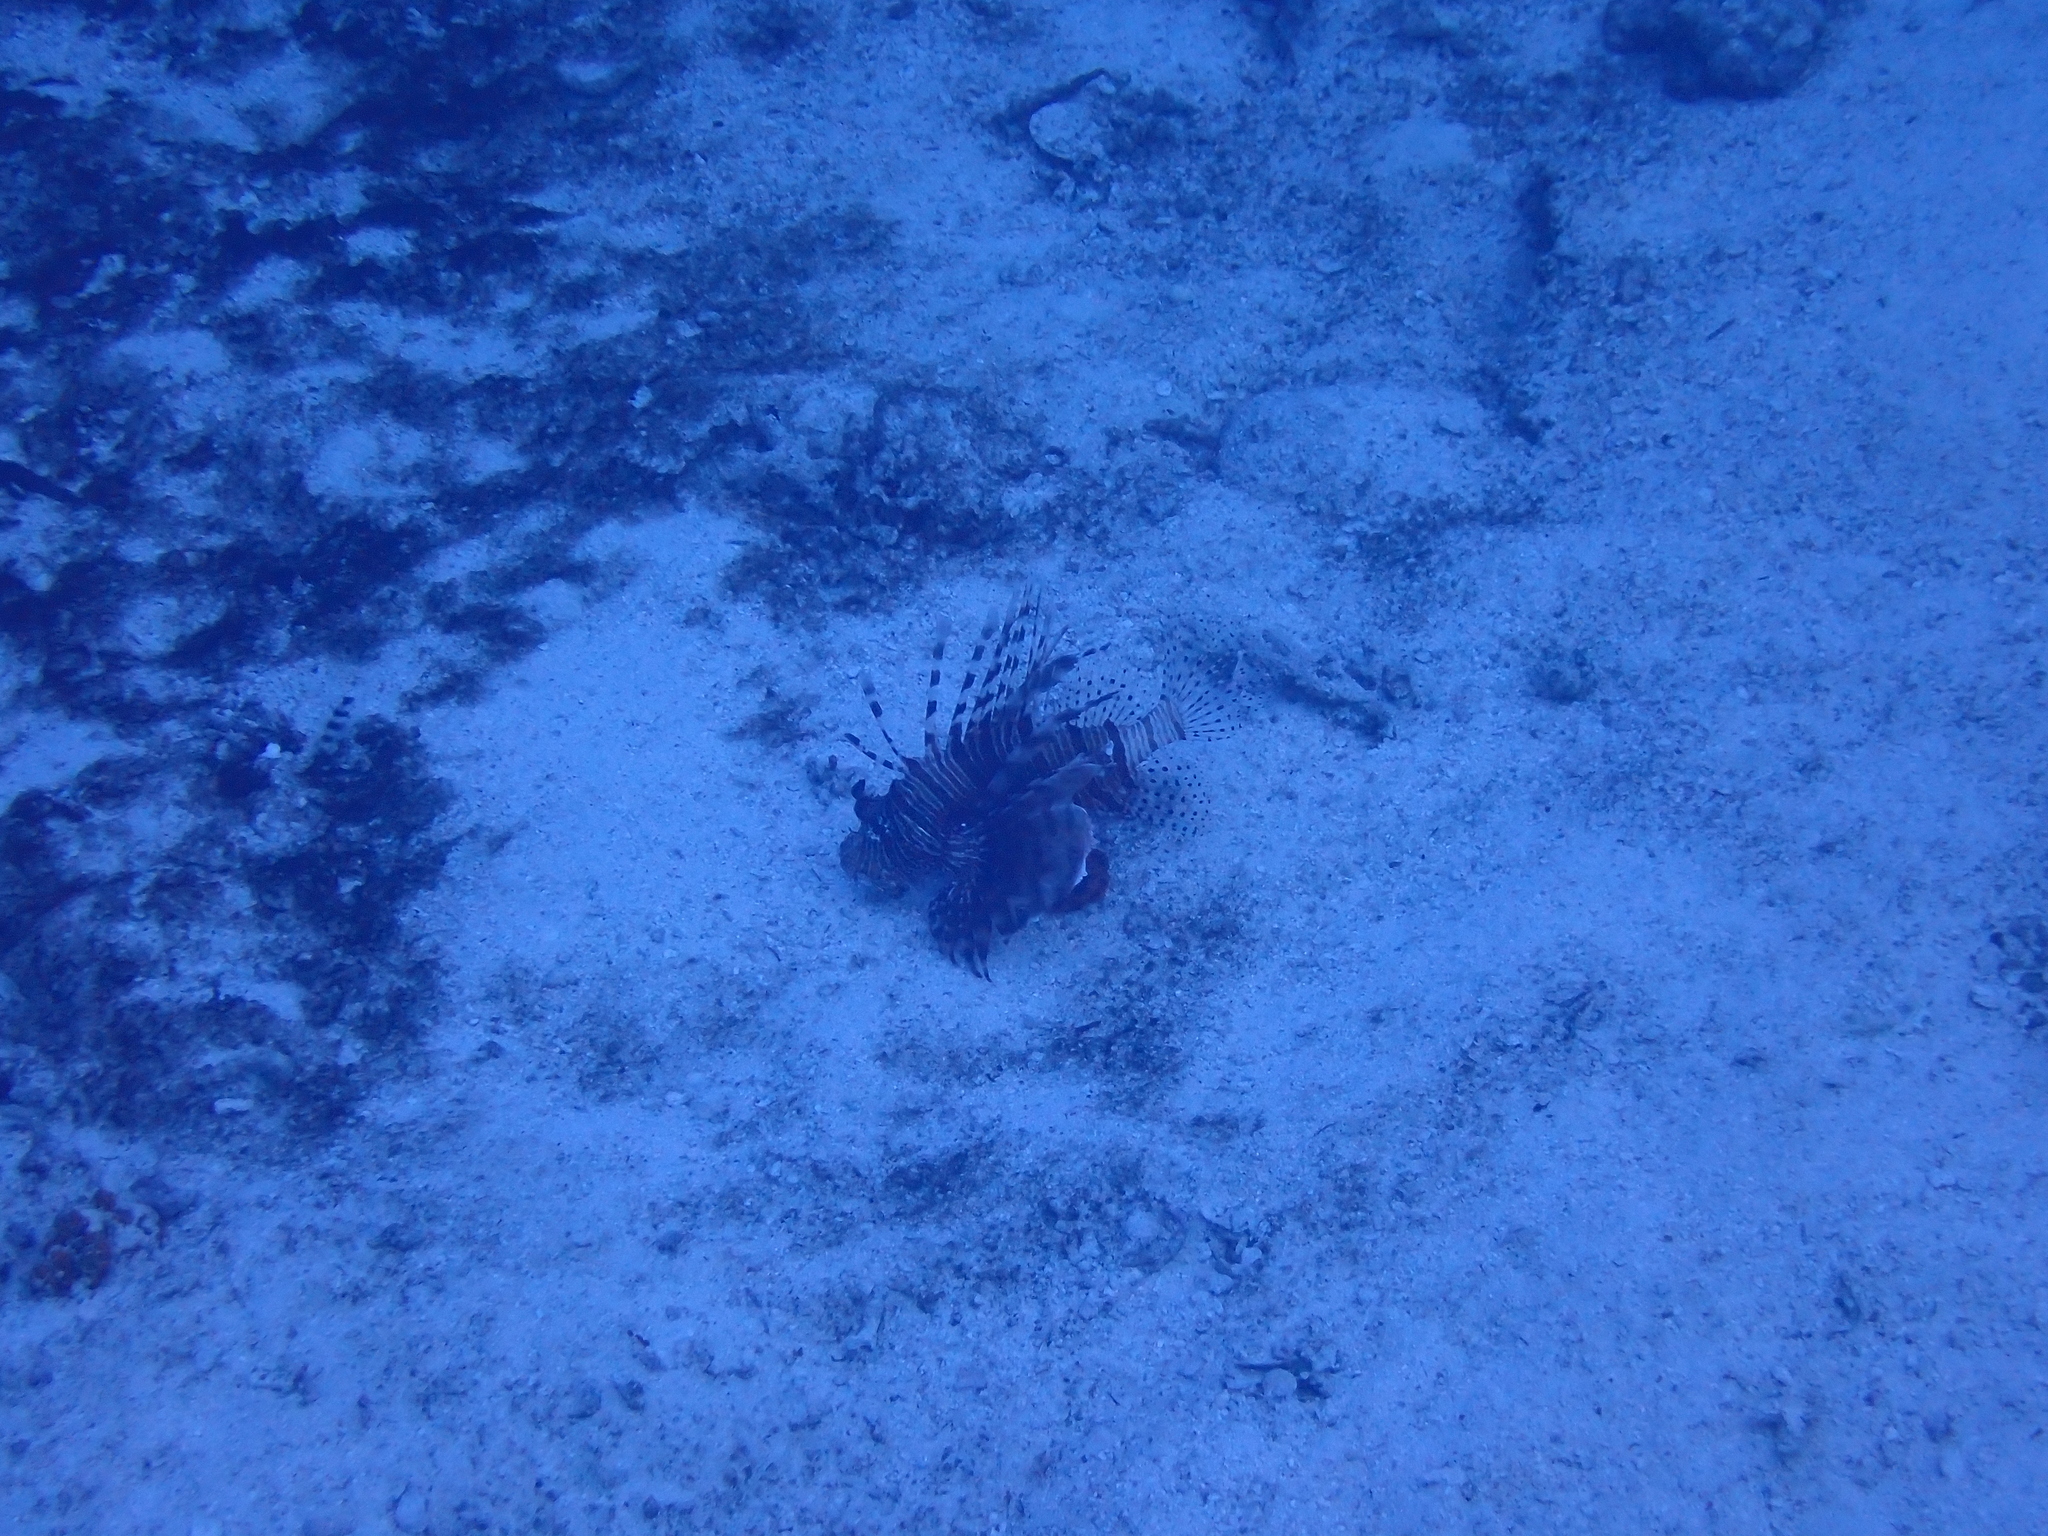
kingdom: Animalia
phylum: Chordata
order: Scorpaeniformes
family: Scorpaenidae
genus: Pterois
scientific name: Pterois miles
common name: Devil firefish
